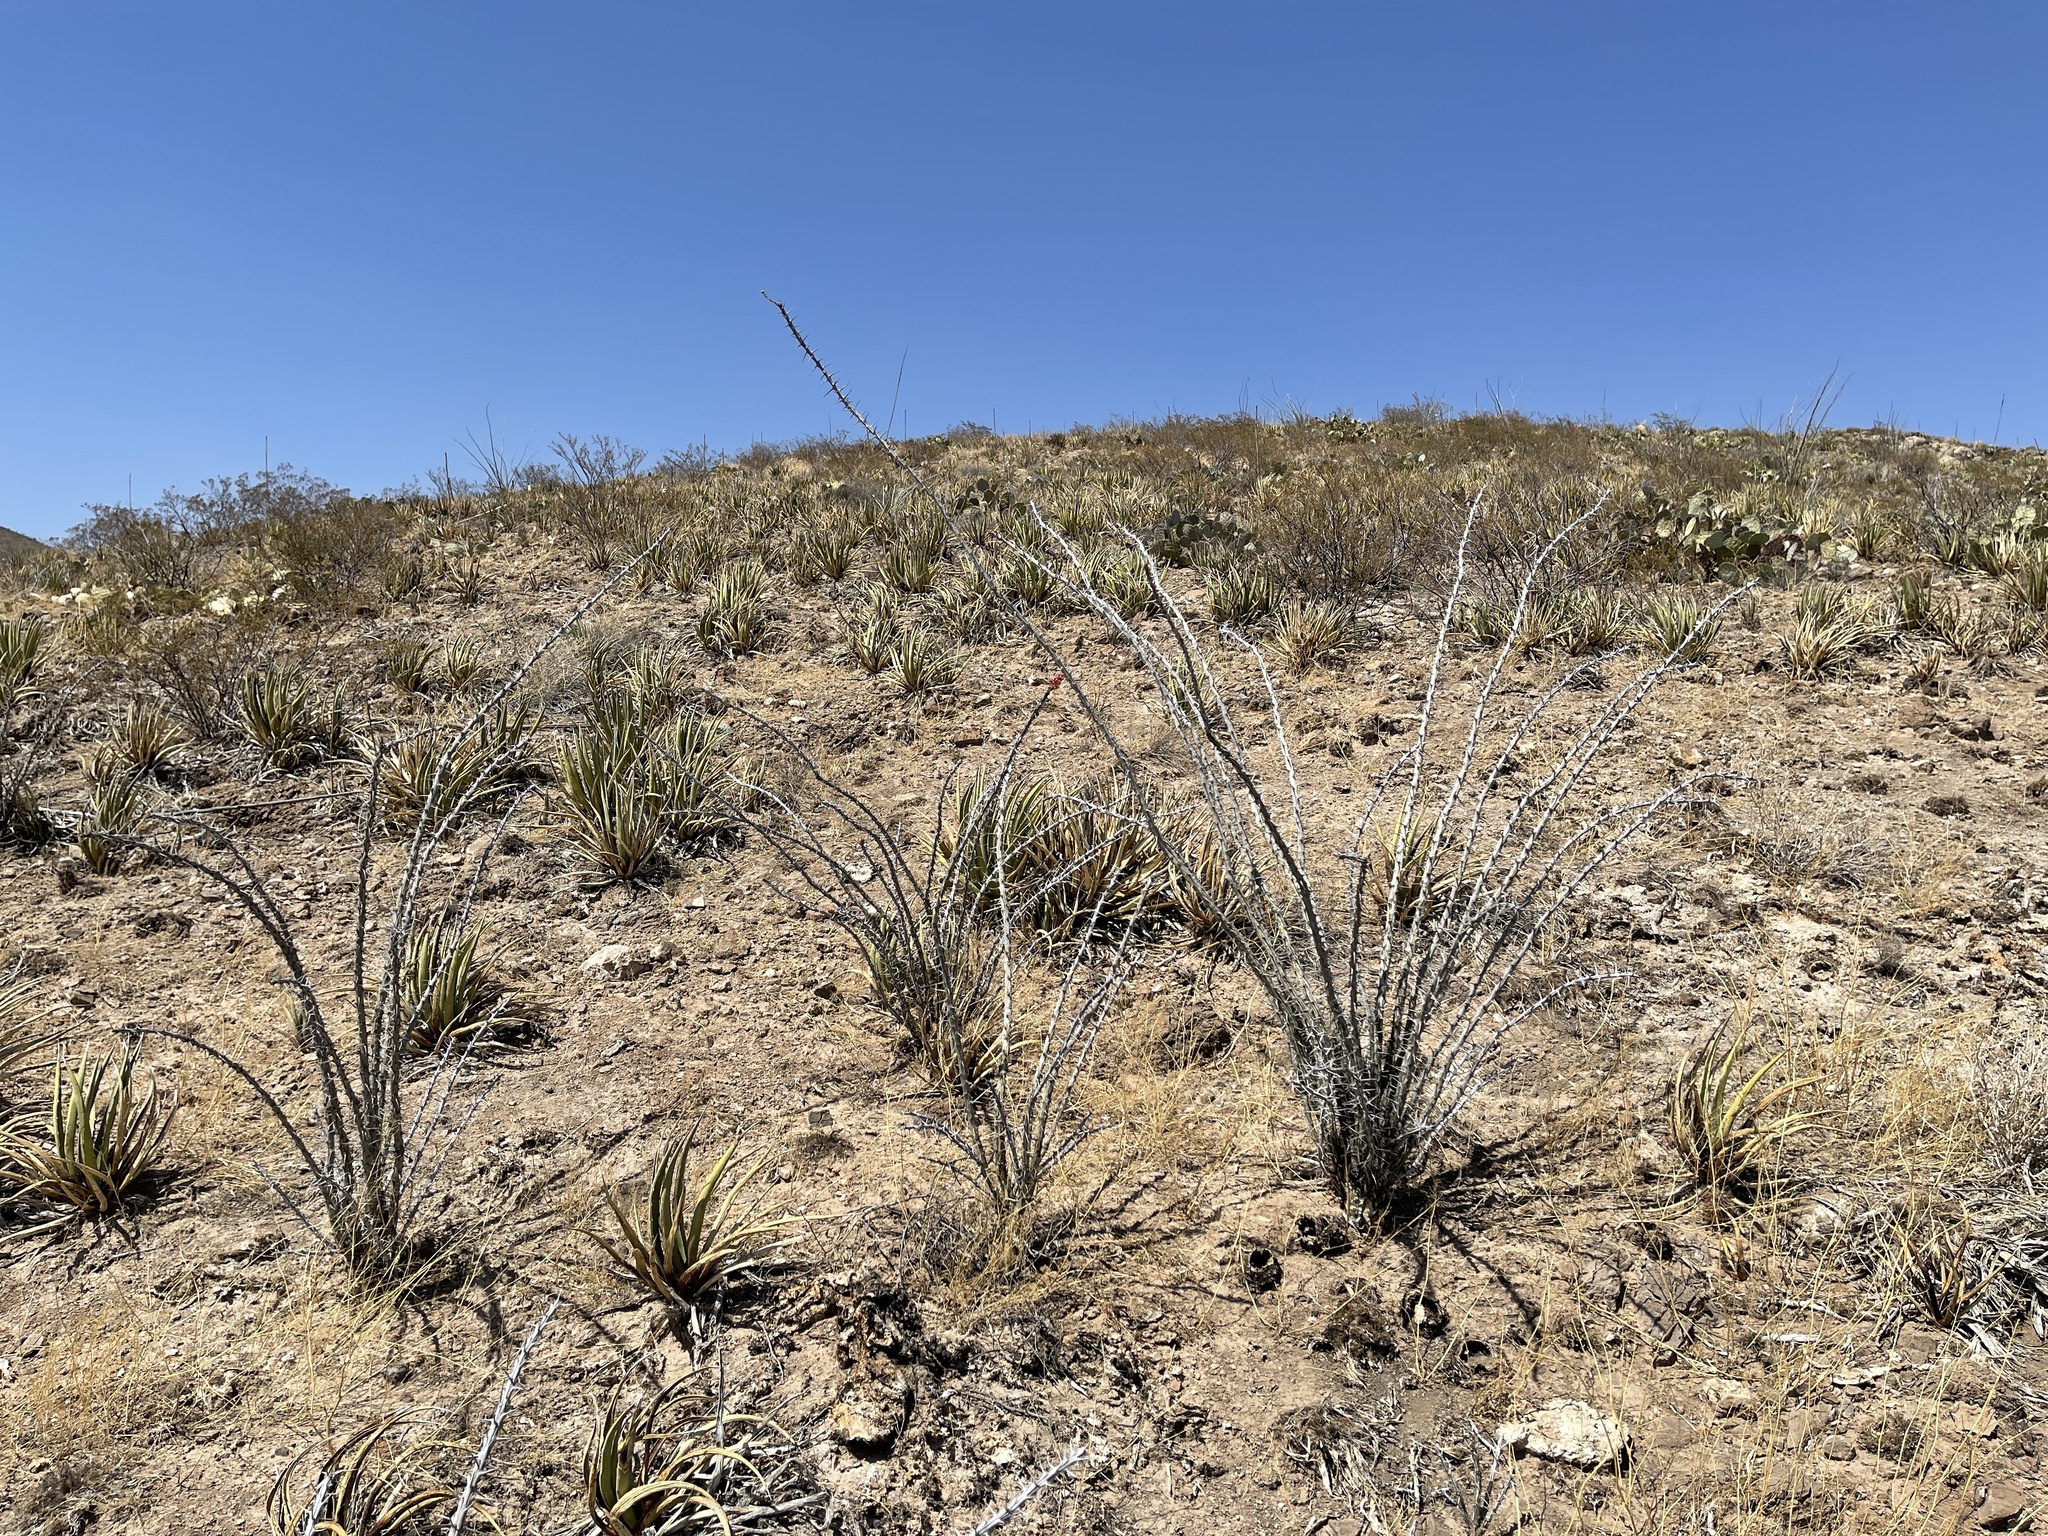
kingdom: Plantae
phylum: Tracheophyta
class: Magnoliopsida
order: Ericales
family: Fouquieriaceae
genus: Fouquieria
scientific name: Fouquieria splendens
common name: Vine-cactus
